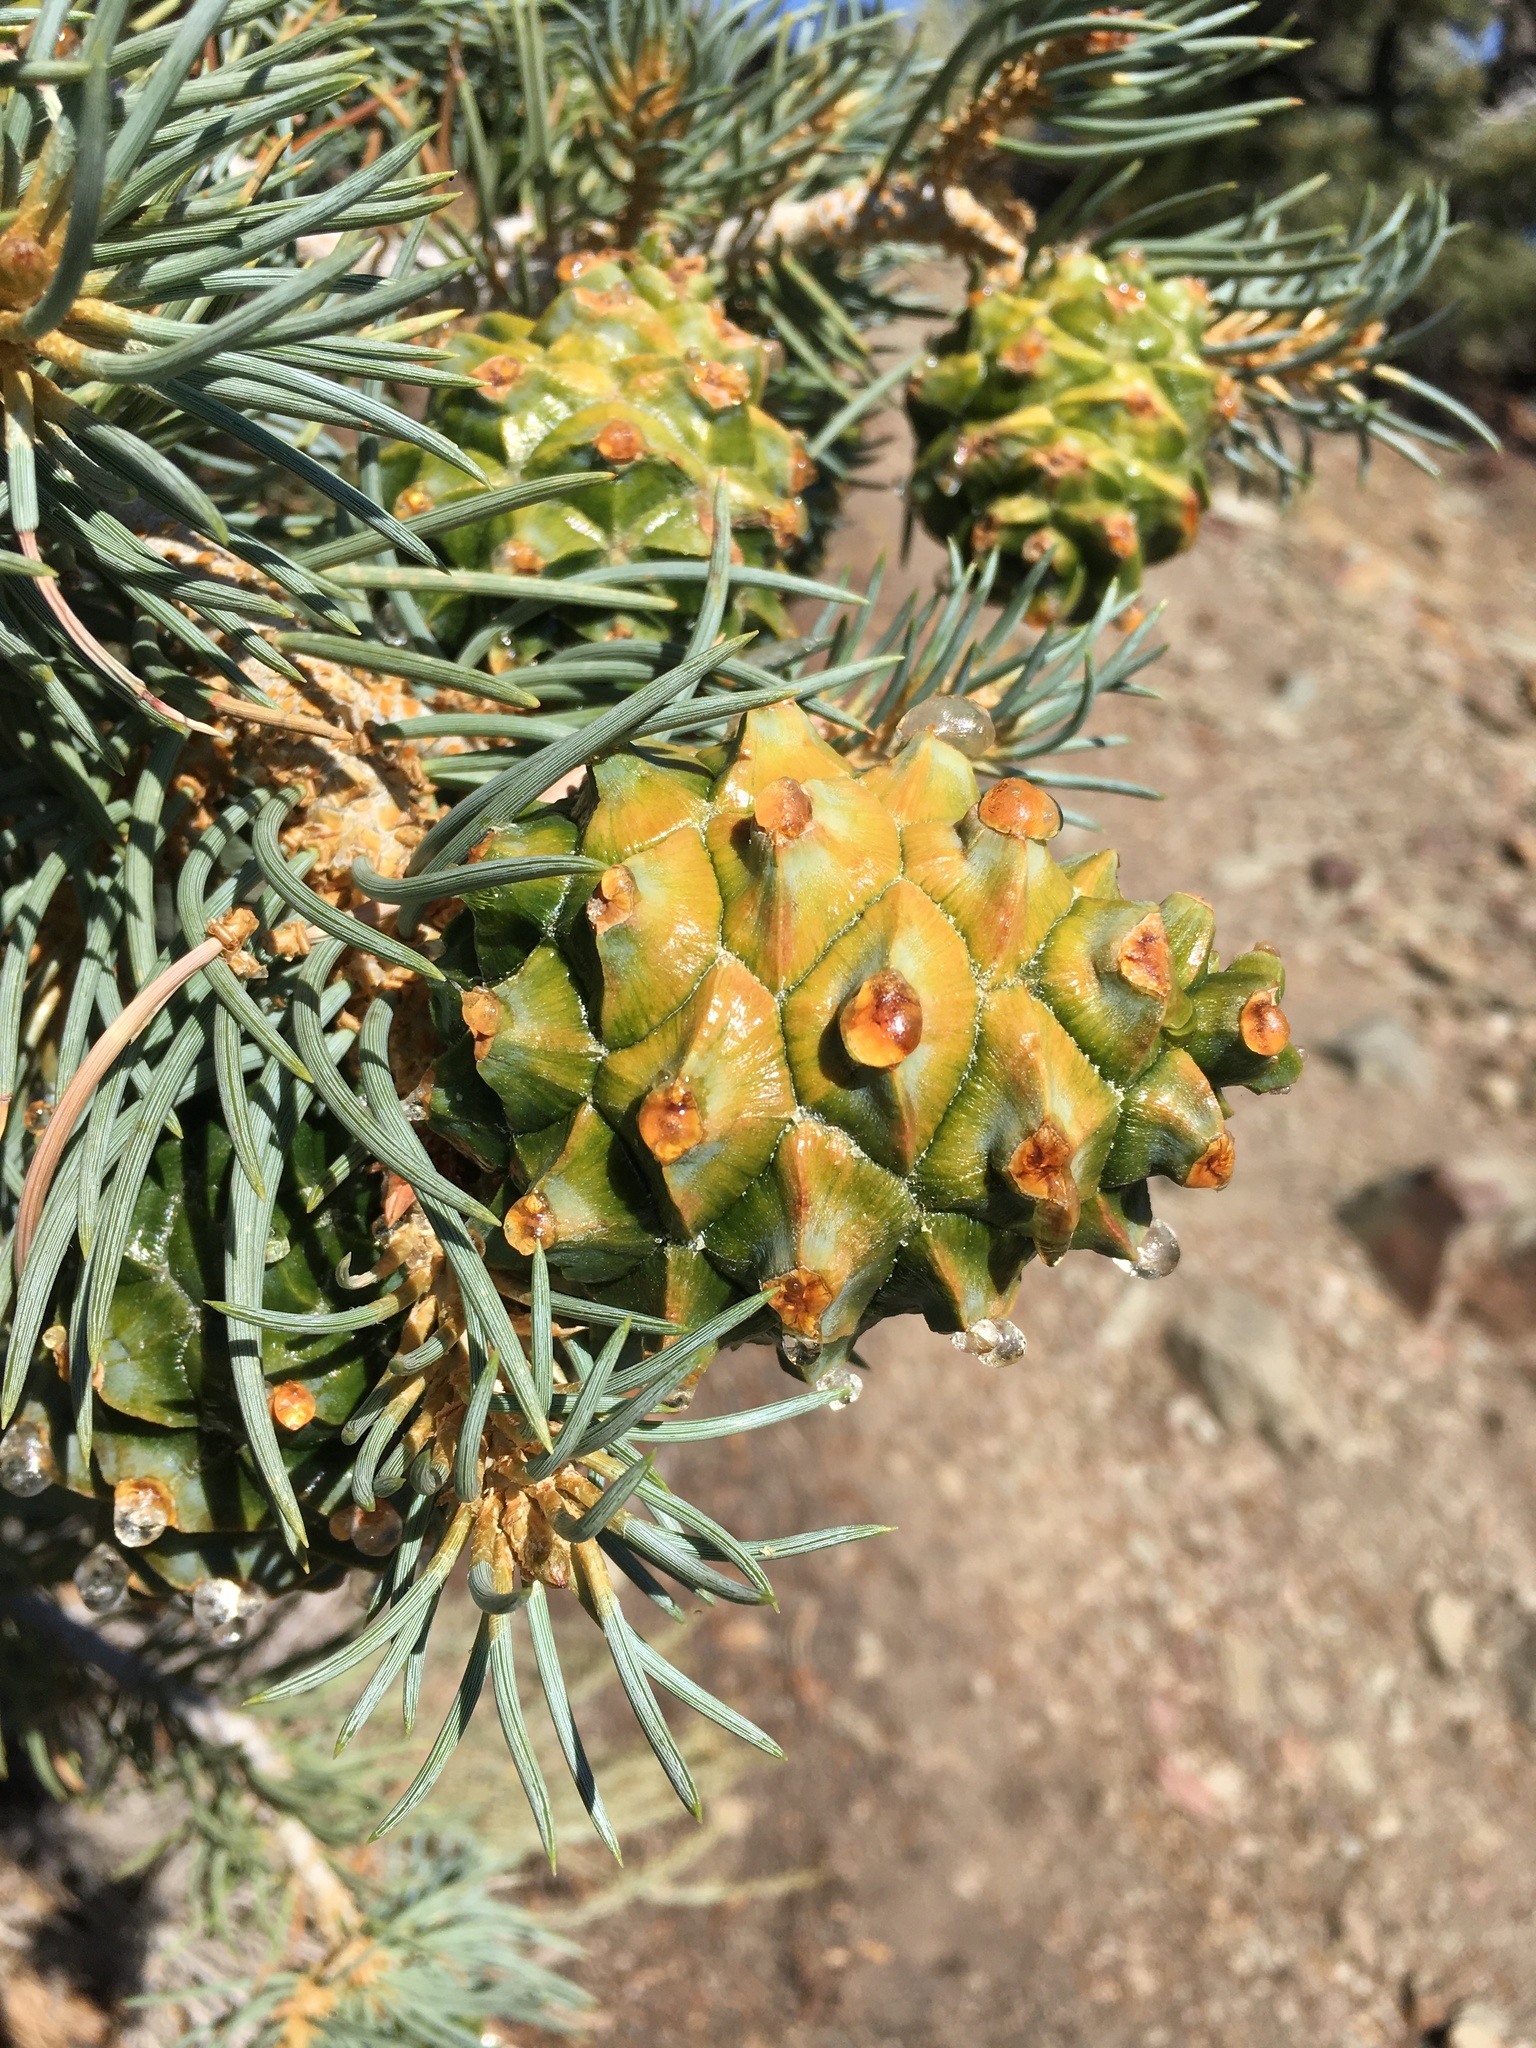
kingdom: Plantae
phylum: Tracheophyta
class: Pinopsida
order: Pinales
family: Pinaceae
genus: Pinus
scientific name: Pinus monophylla
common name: One-leaved nut pine
